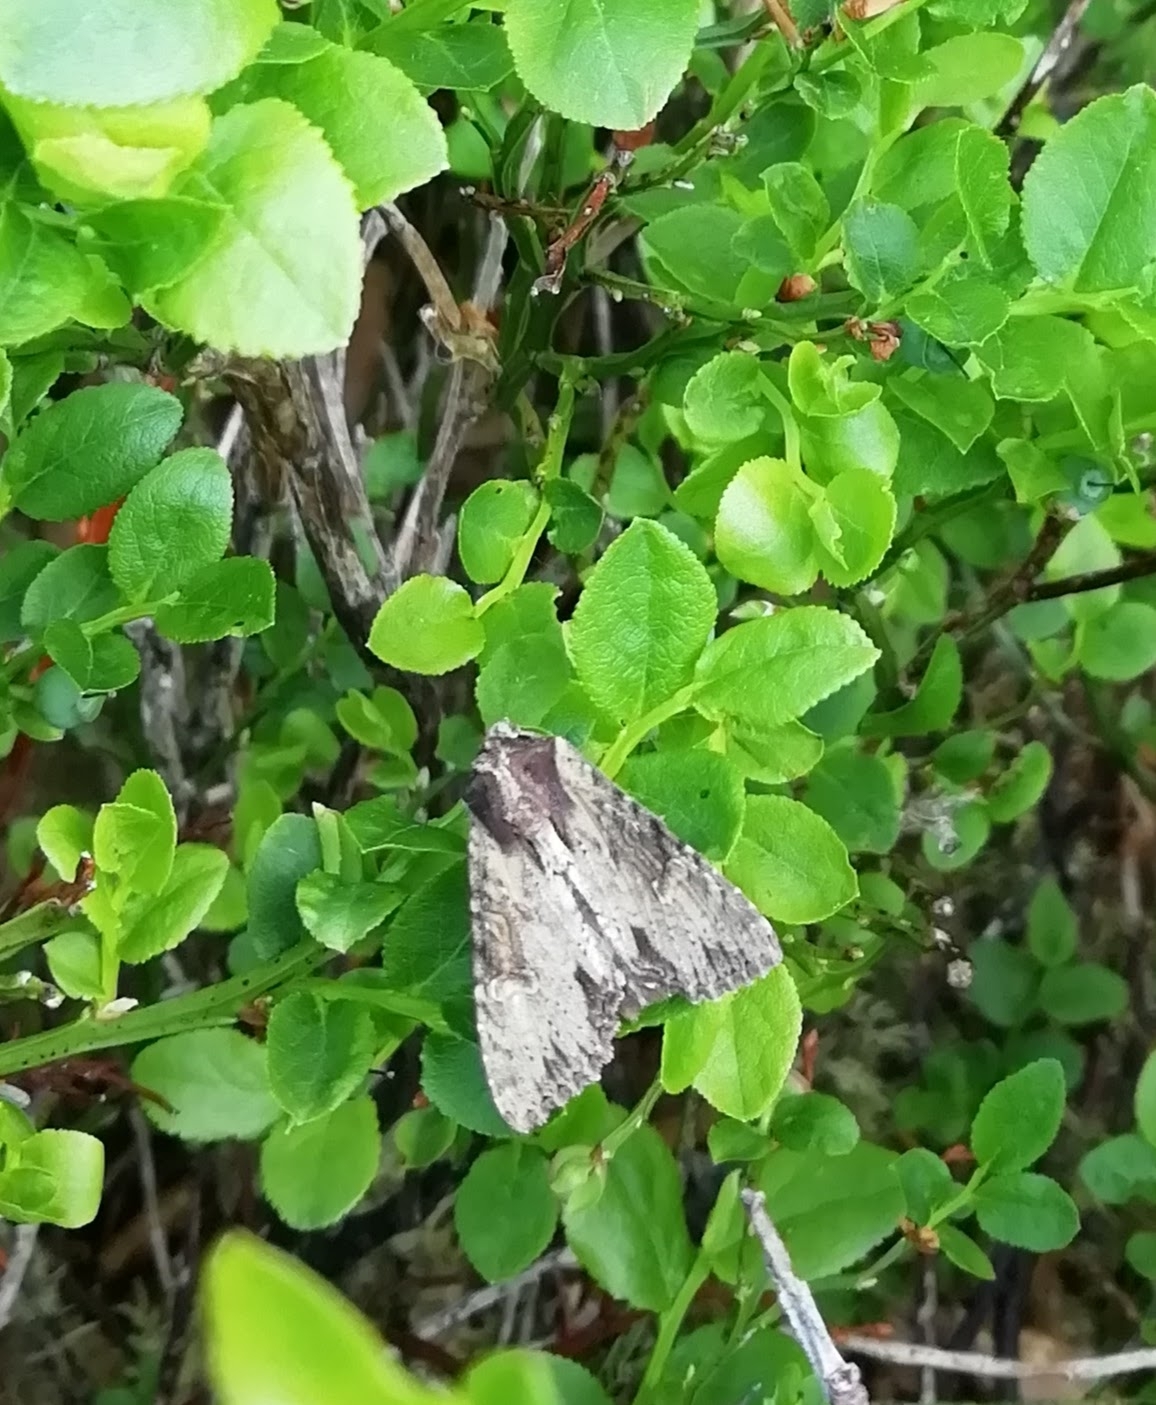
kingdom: Animalia
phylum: Arthropoda
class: Insecta
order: Lepidoptera
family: Noctuidae
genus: Apamea
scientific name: Apamea crenata
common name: Clouded-bordered brindle
